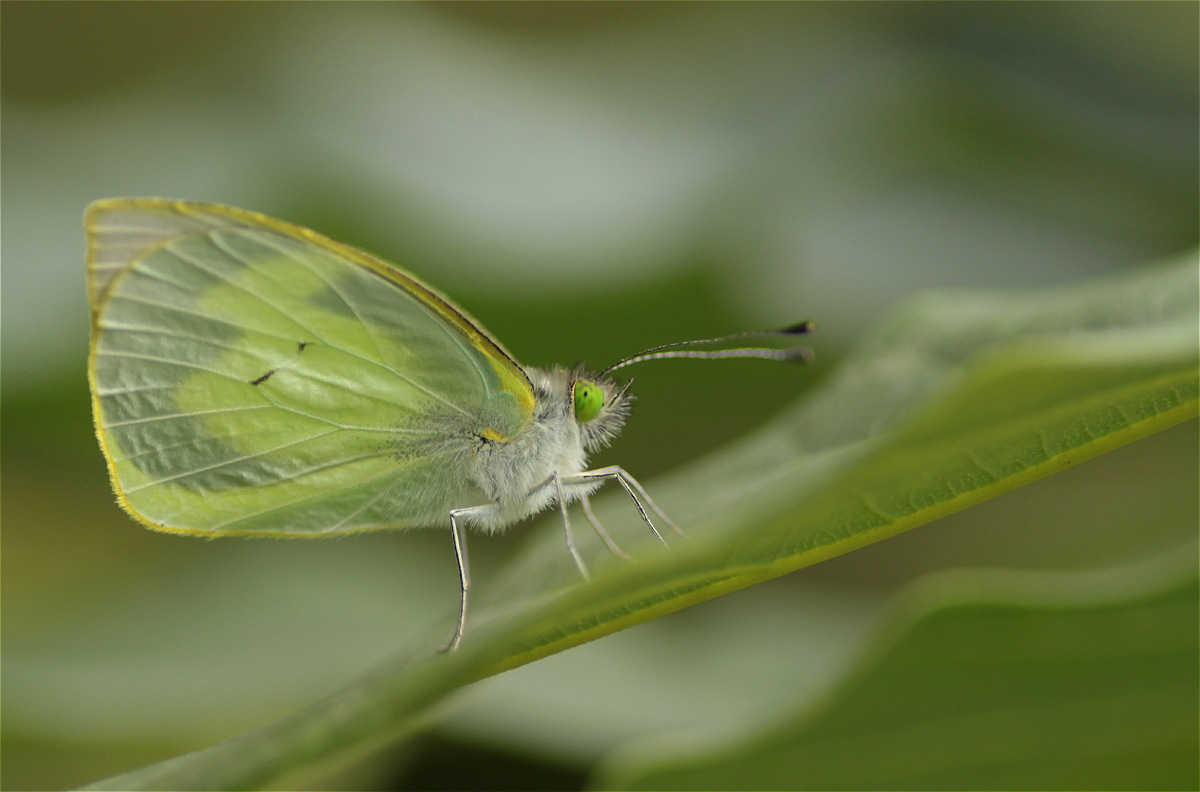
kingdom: Animalia
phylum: Arthropoda
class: Insecta
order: Lepidoptera
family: Pieridae
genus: Leptophobia
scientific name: Leptophobia eleone
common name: Silky wanderer
